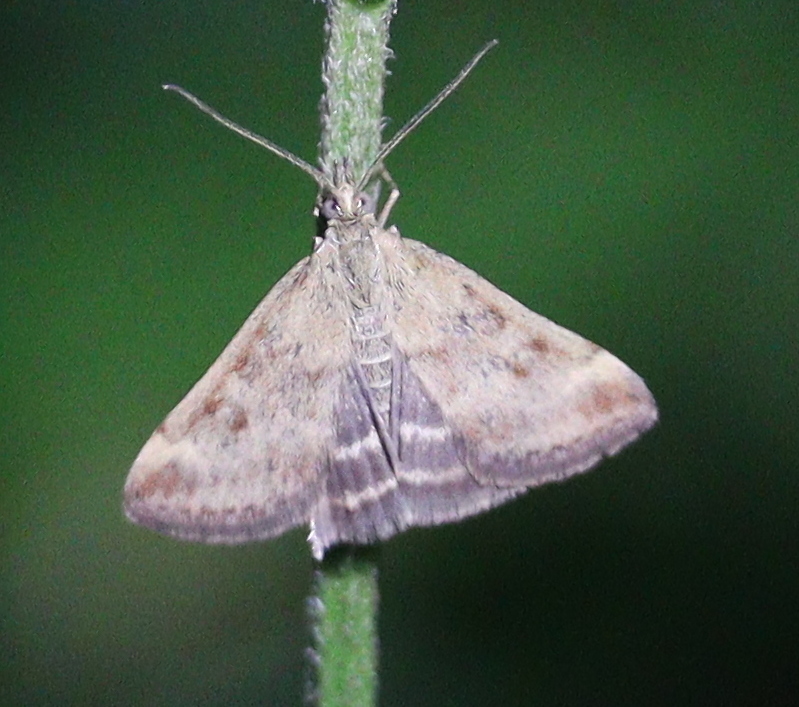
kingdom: Animalia
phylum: Arthropoda
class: Insecta
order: Lepidoptera
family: Crambidae
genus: Pyrausta
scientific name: Pyrausta despicata
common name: Straw-barred pearl
